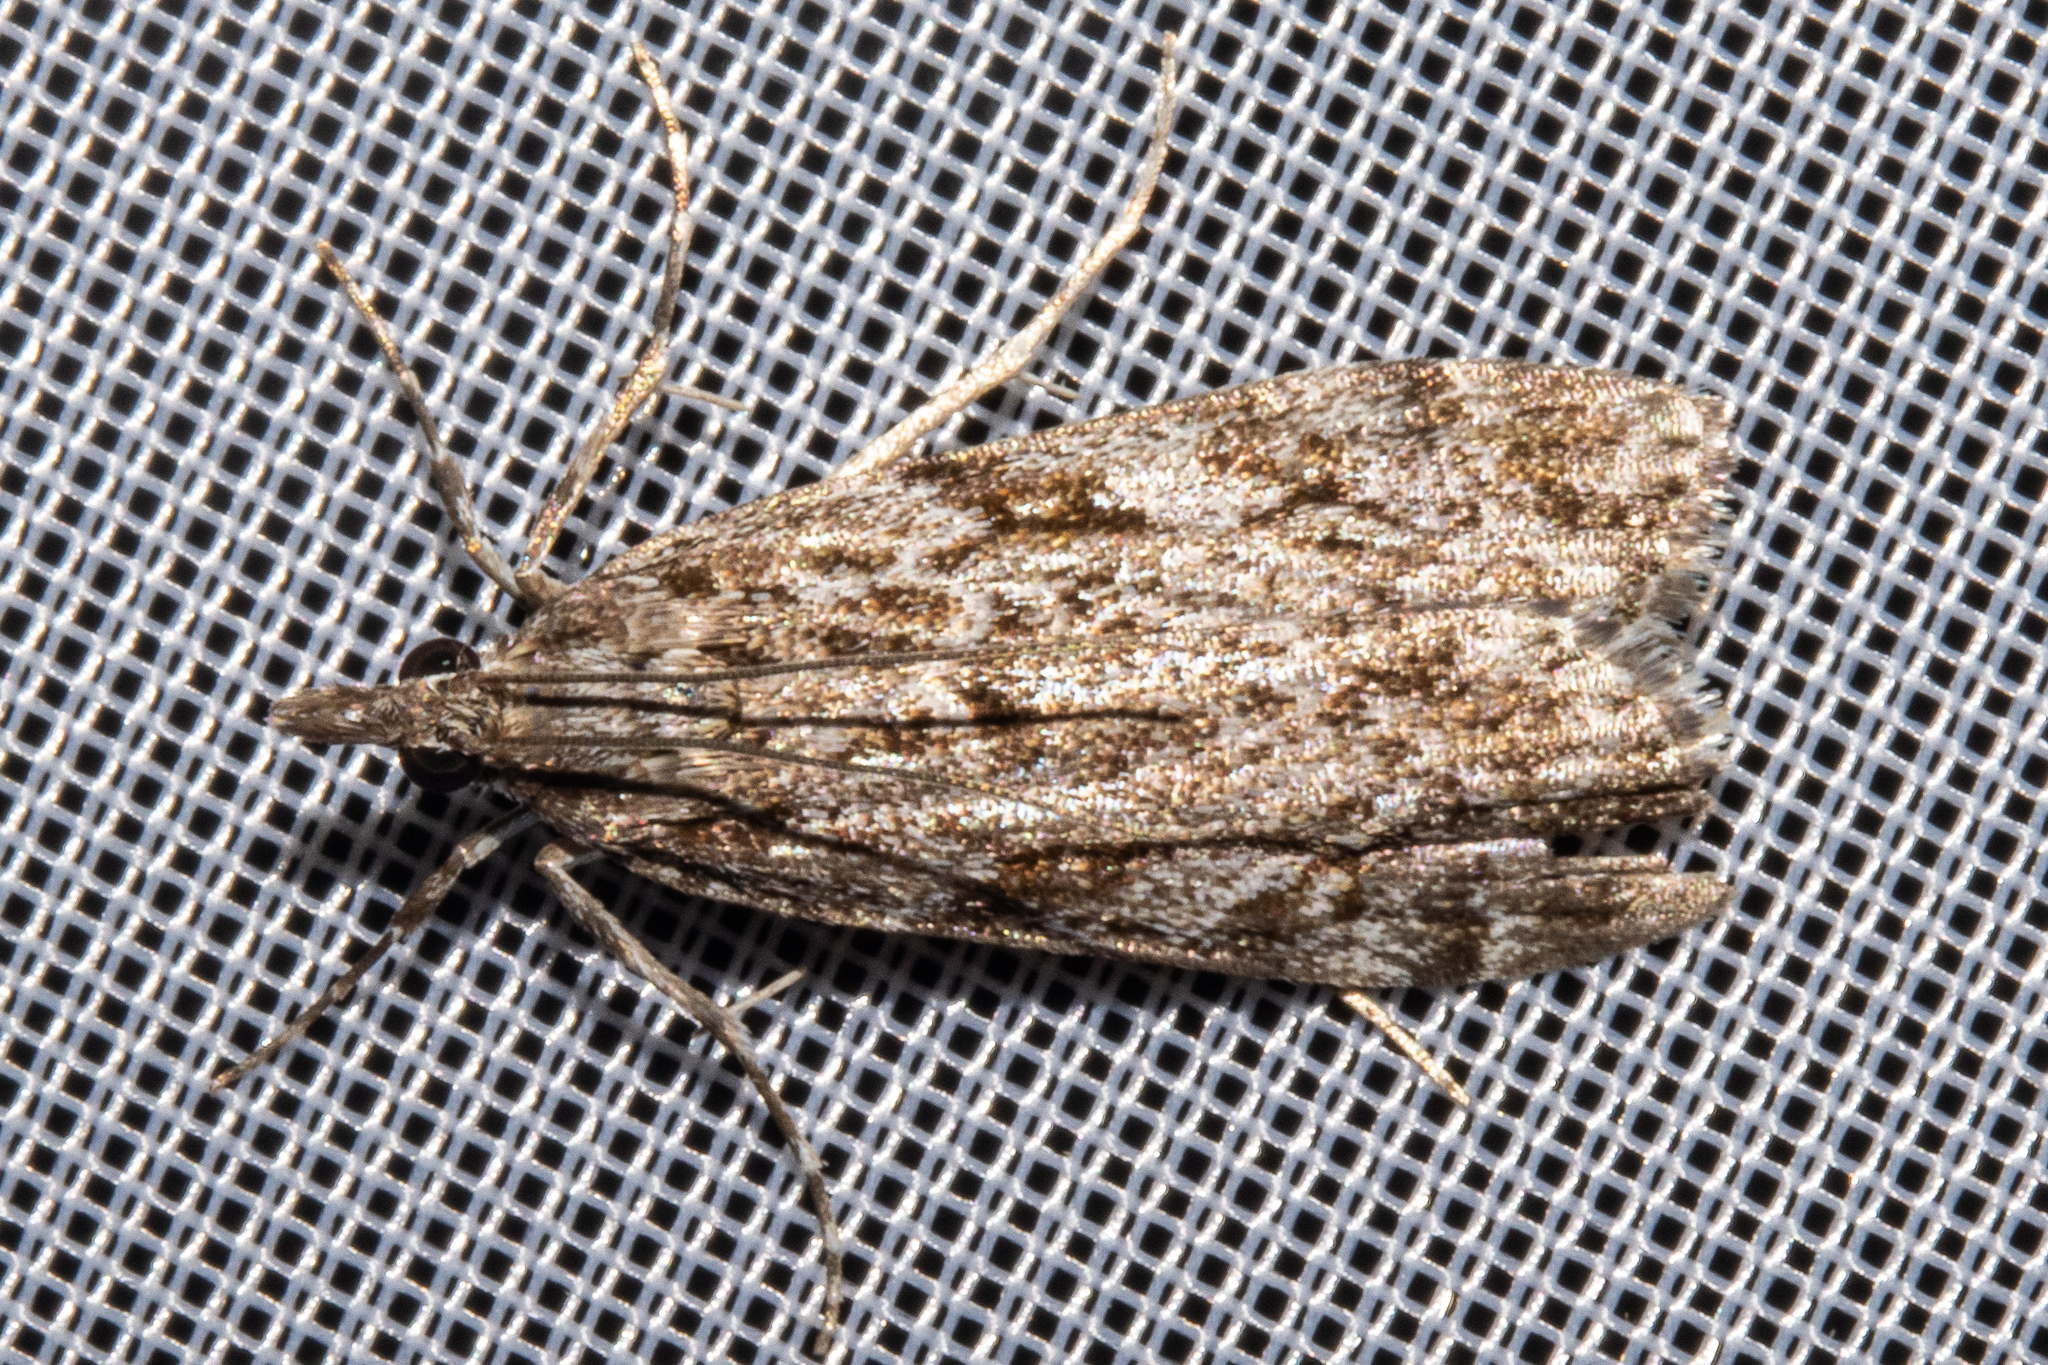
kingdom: Animalia
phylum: Arthropoda
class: Insecta
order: Lepidoptera
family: Crambidae
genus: Eudonia
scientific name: Eudonia cymatias
